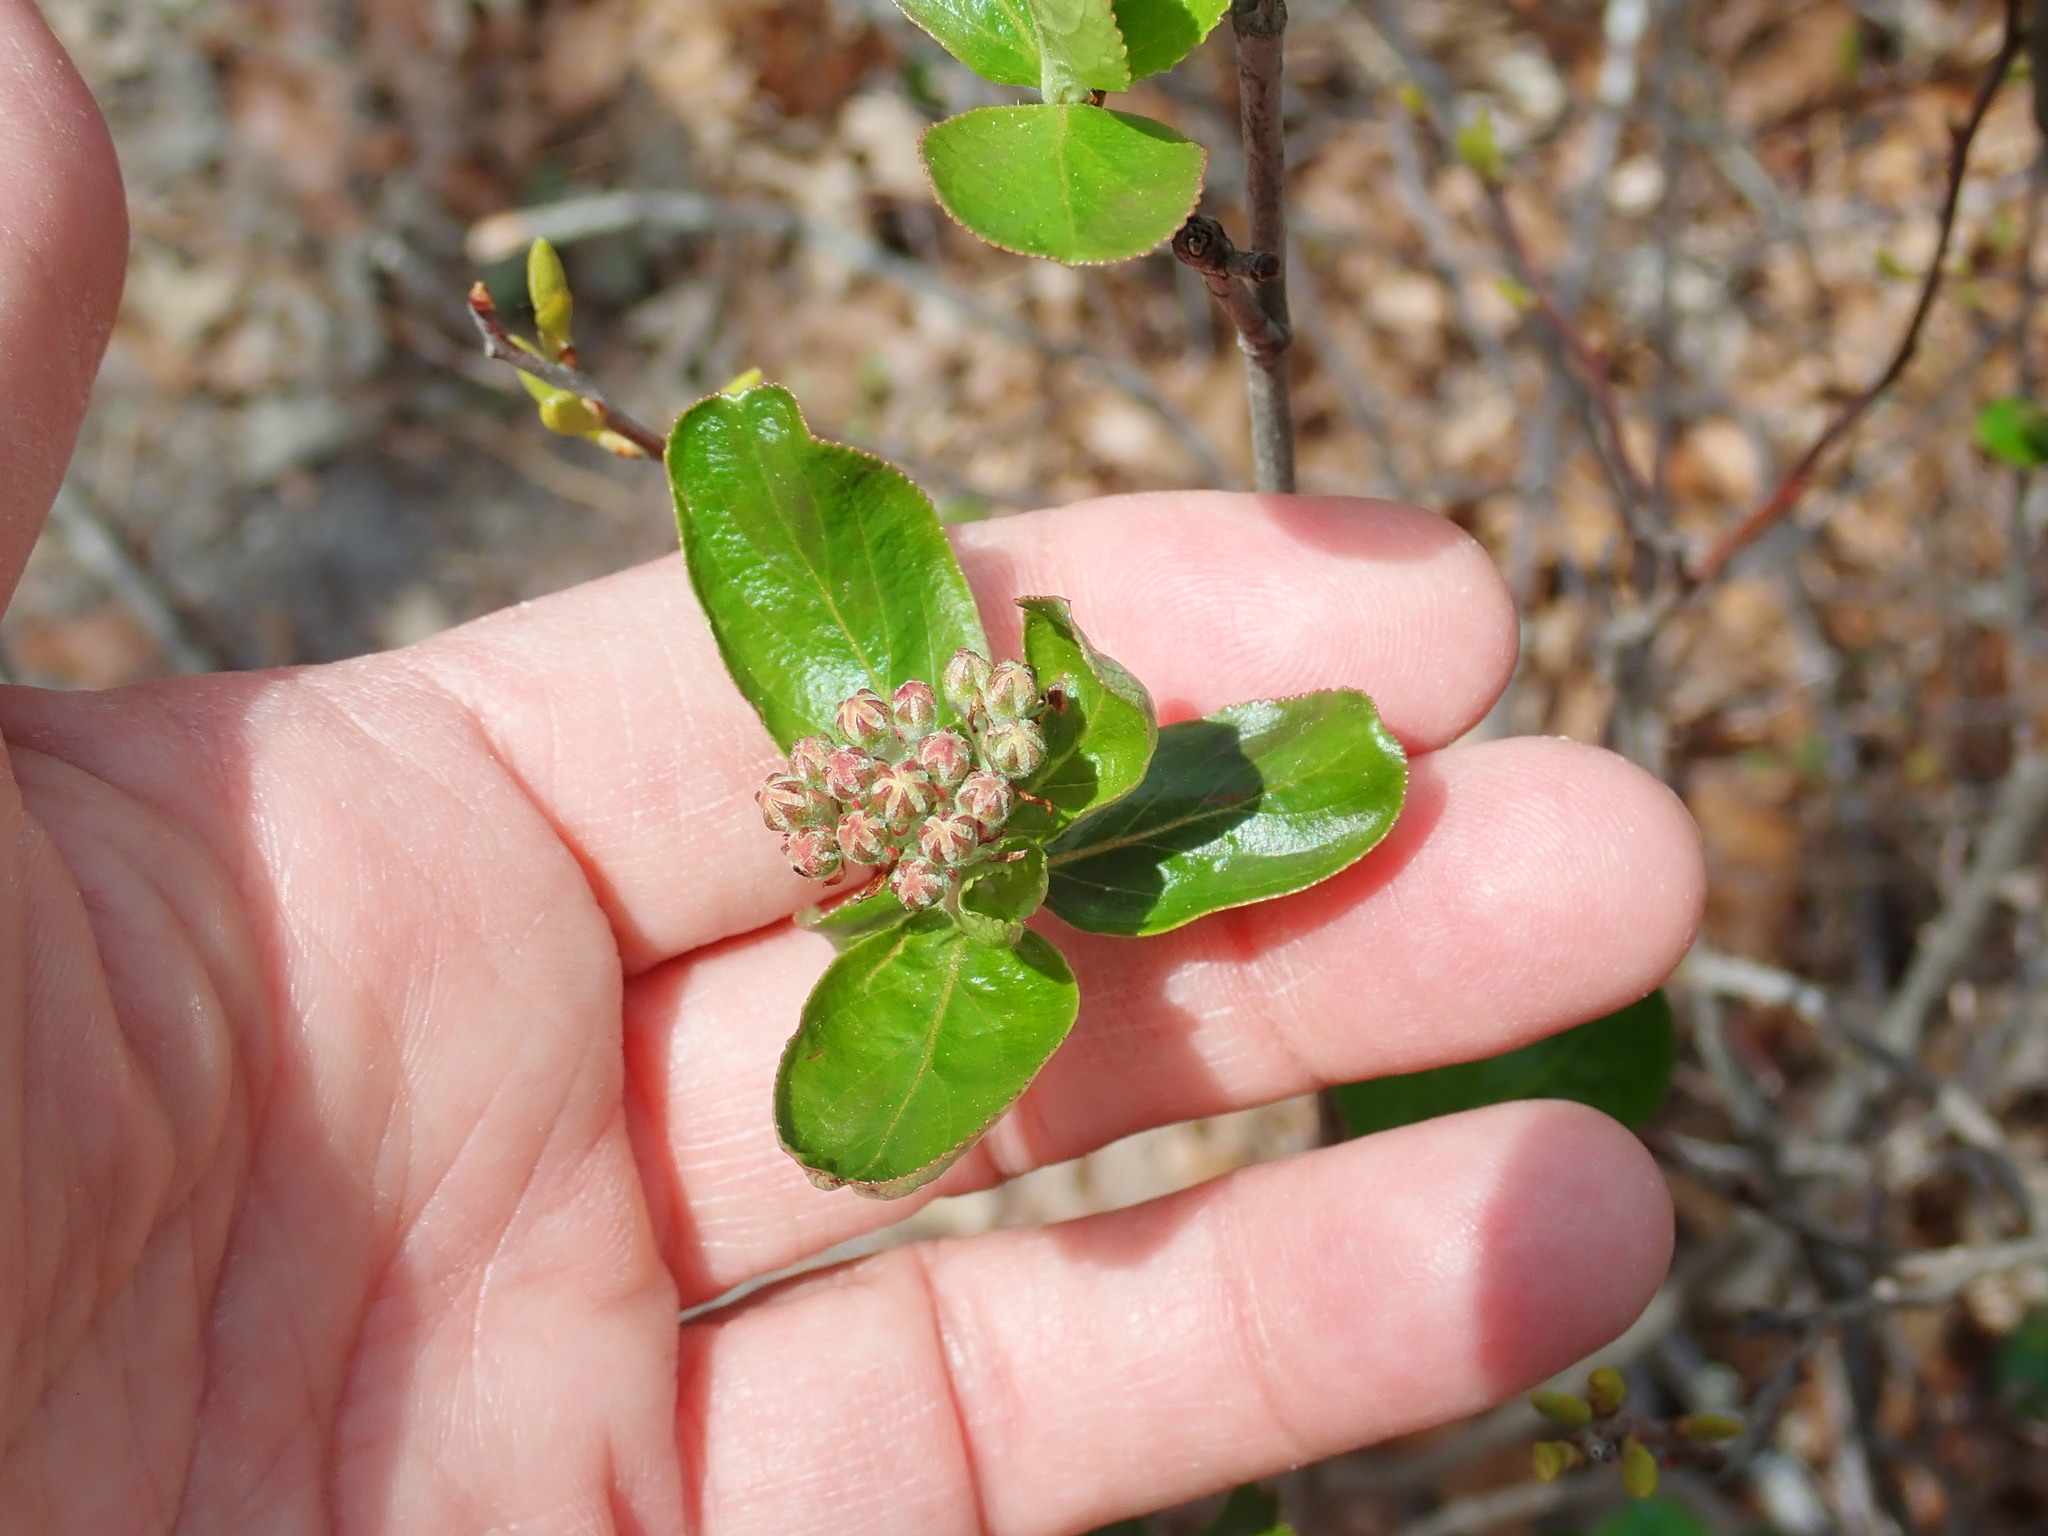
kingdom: Plantae
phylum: Tracheophyta
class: Magnoliopsida
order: Rosales
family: Rosaceae
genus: Aronia
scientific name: Aronia
